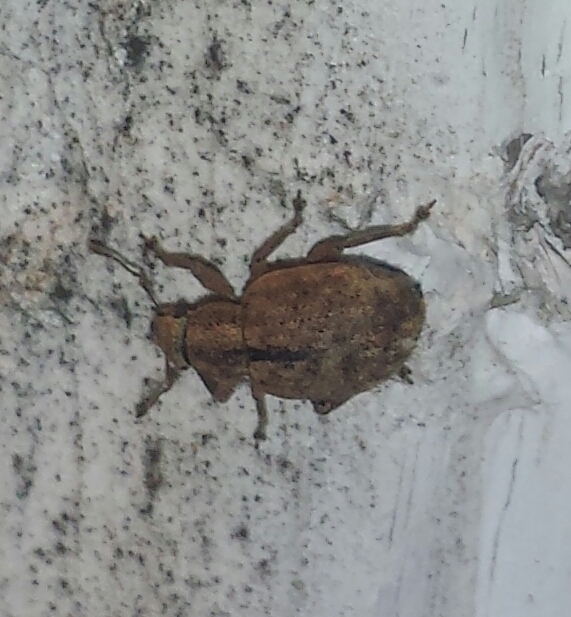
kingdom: Animalia
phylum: Arthropoda
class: Insecta
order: Coleoptera
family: Curculionidae
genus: Strophosoma
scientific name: Strophosoma melanogrammum
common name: Weevil
